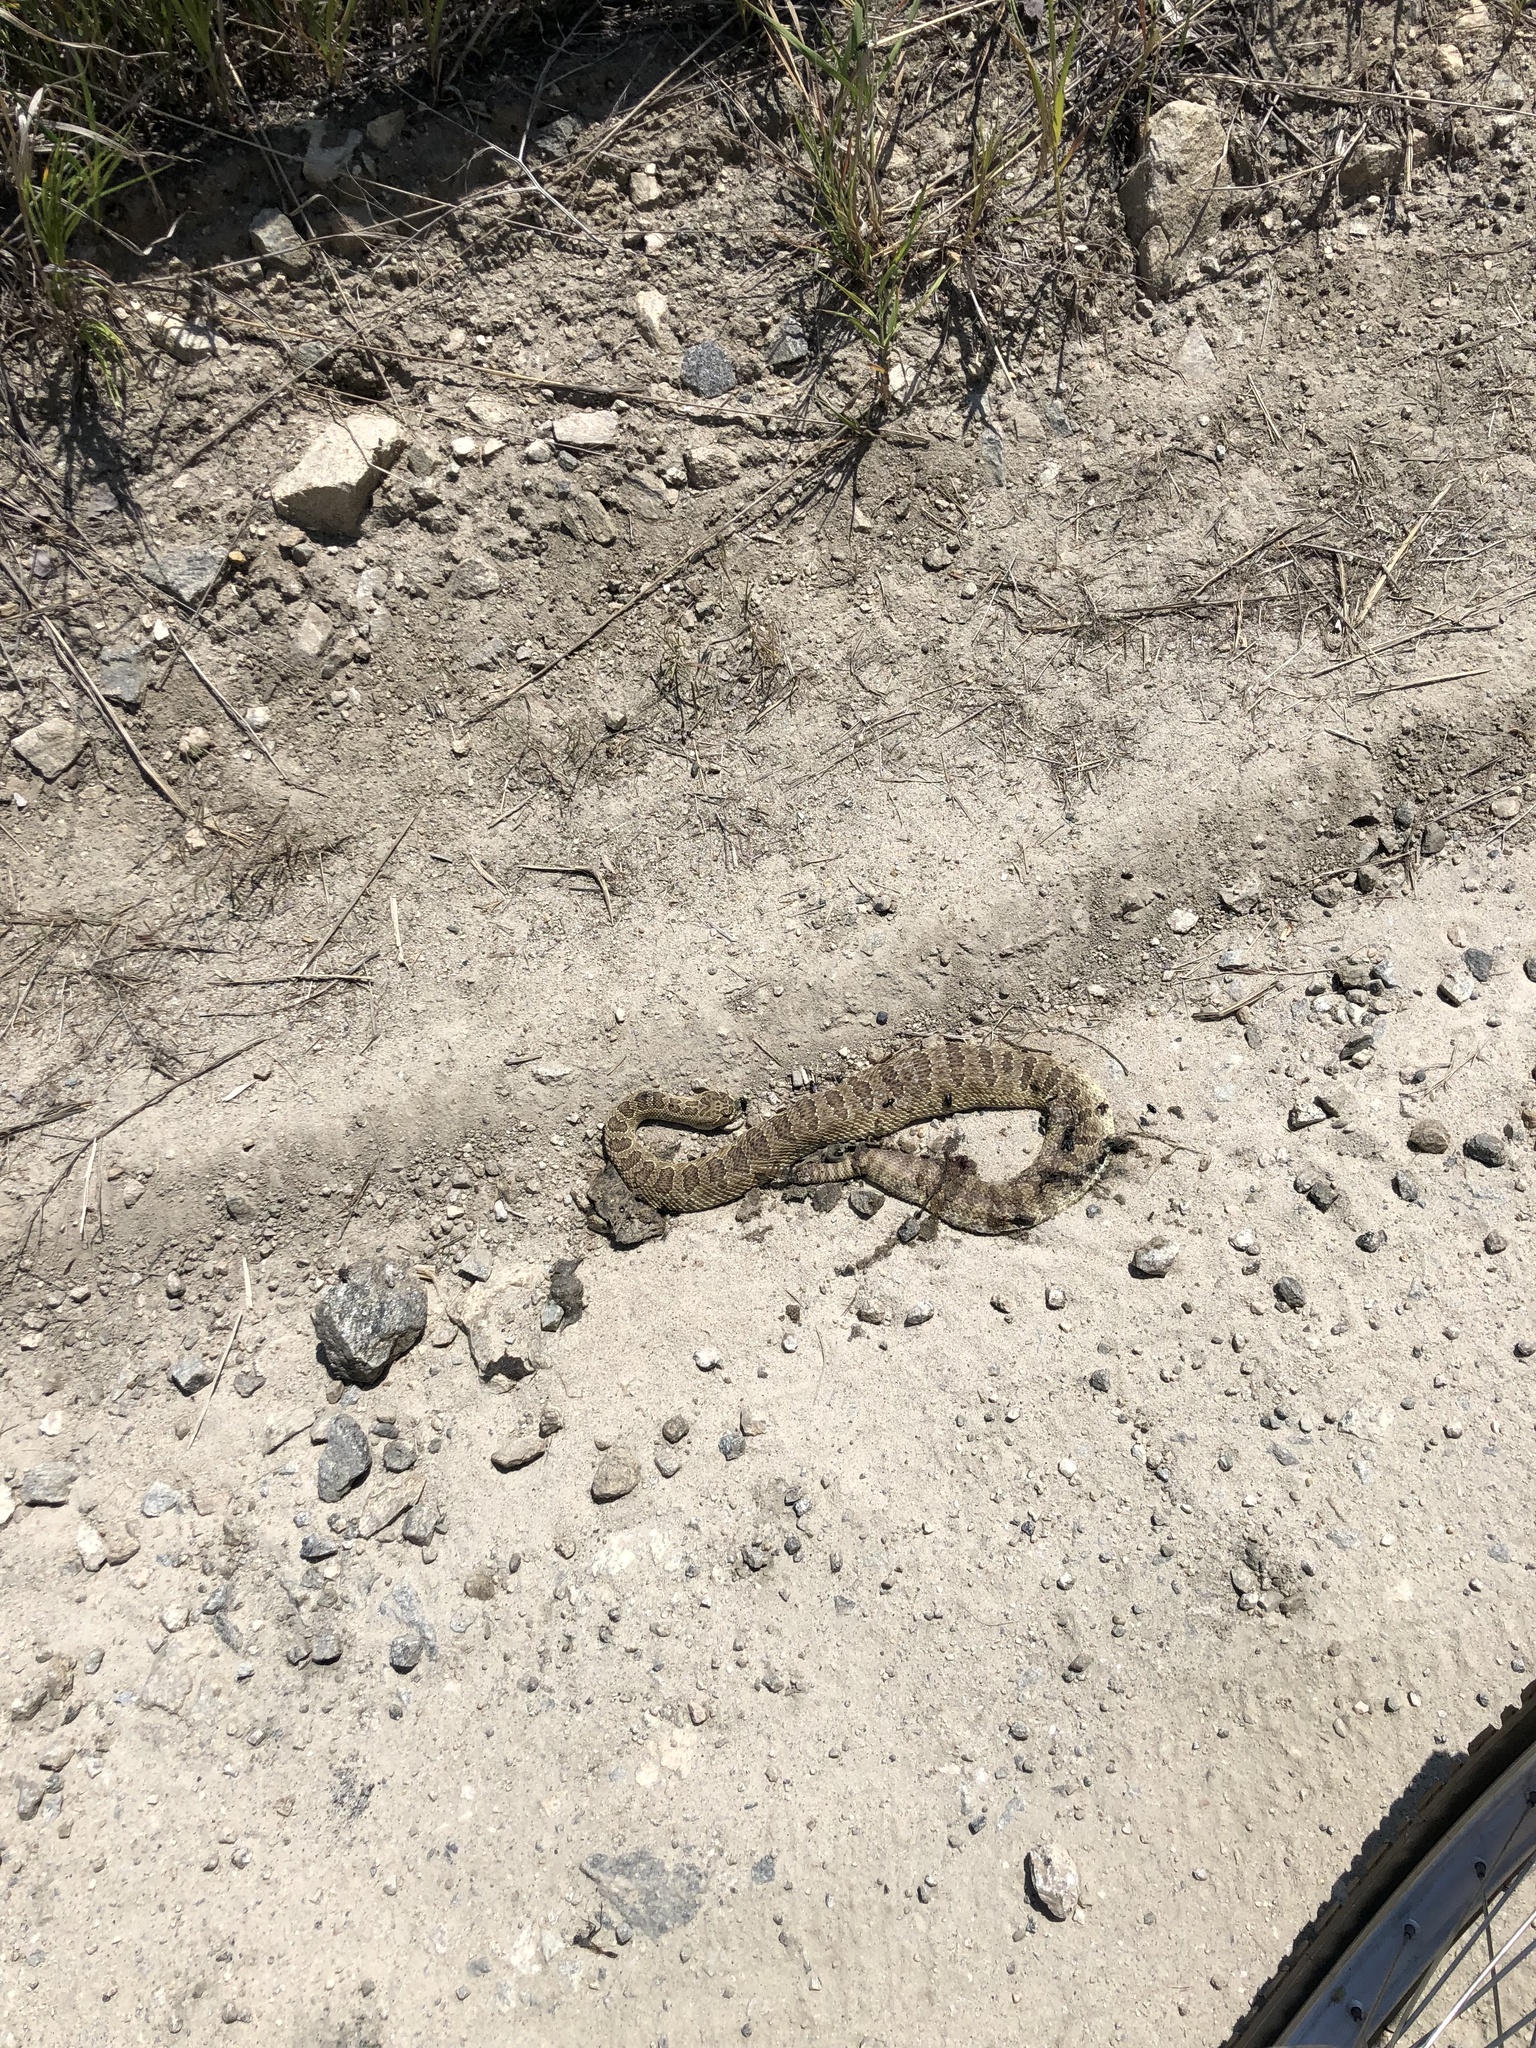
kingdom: Animalia
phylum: Chordata
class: Squamata
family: Viperidae
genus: Crotalus
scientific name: Crotalus viridis
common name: Prairie rattlesnake
